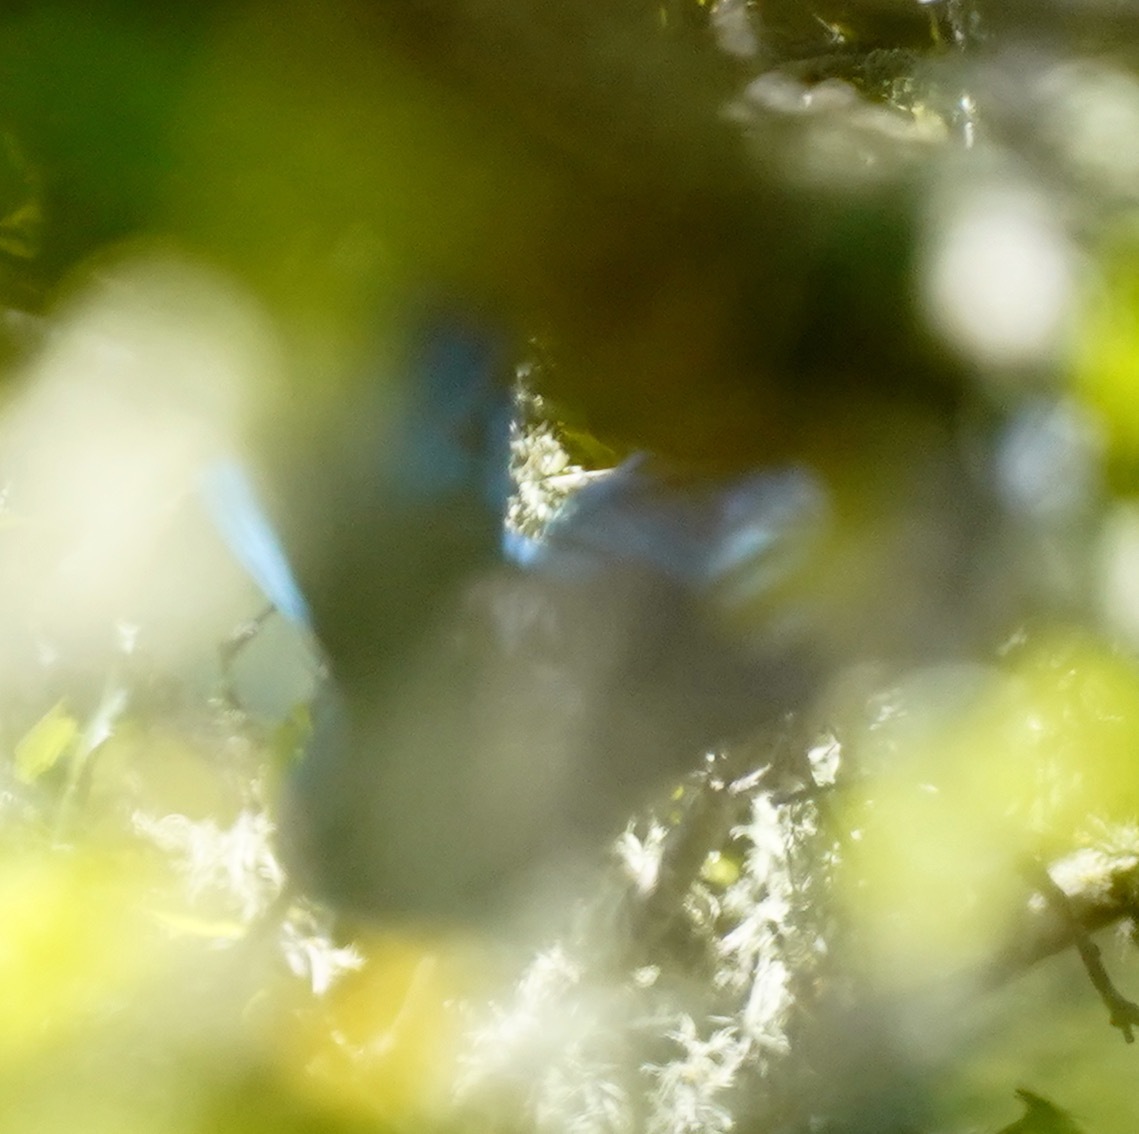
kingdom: Animalia
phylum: Chordata
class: Aves
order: Passeriformes
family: Corvidae
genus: Cyanocitta
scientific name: Cyanocitta stelleri
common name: Steller's jay
